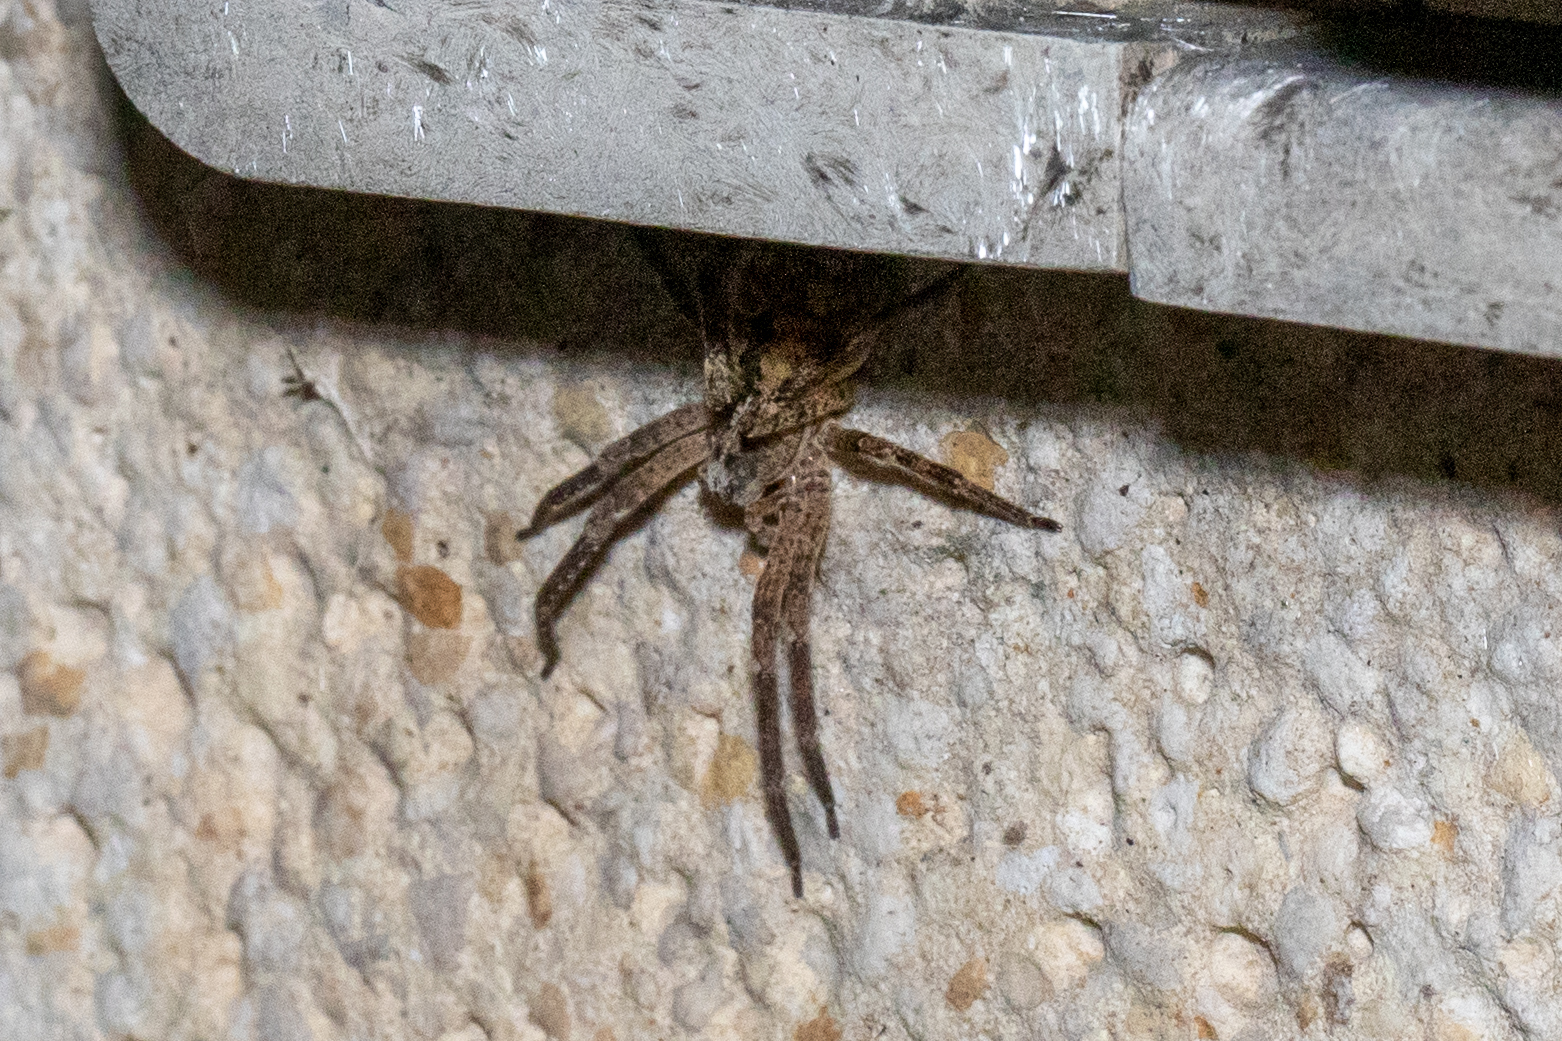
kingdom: Animalia
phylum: Arthropoda
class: Arachnida
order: Araneae
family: Zoropsidae
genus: Zoropsis
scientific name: Zoropsis spinimana
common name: Zoropsid spider
